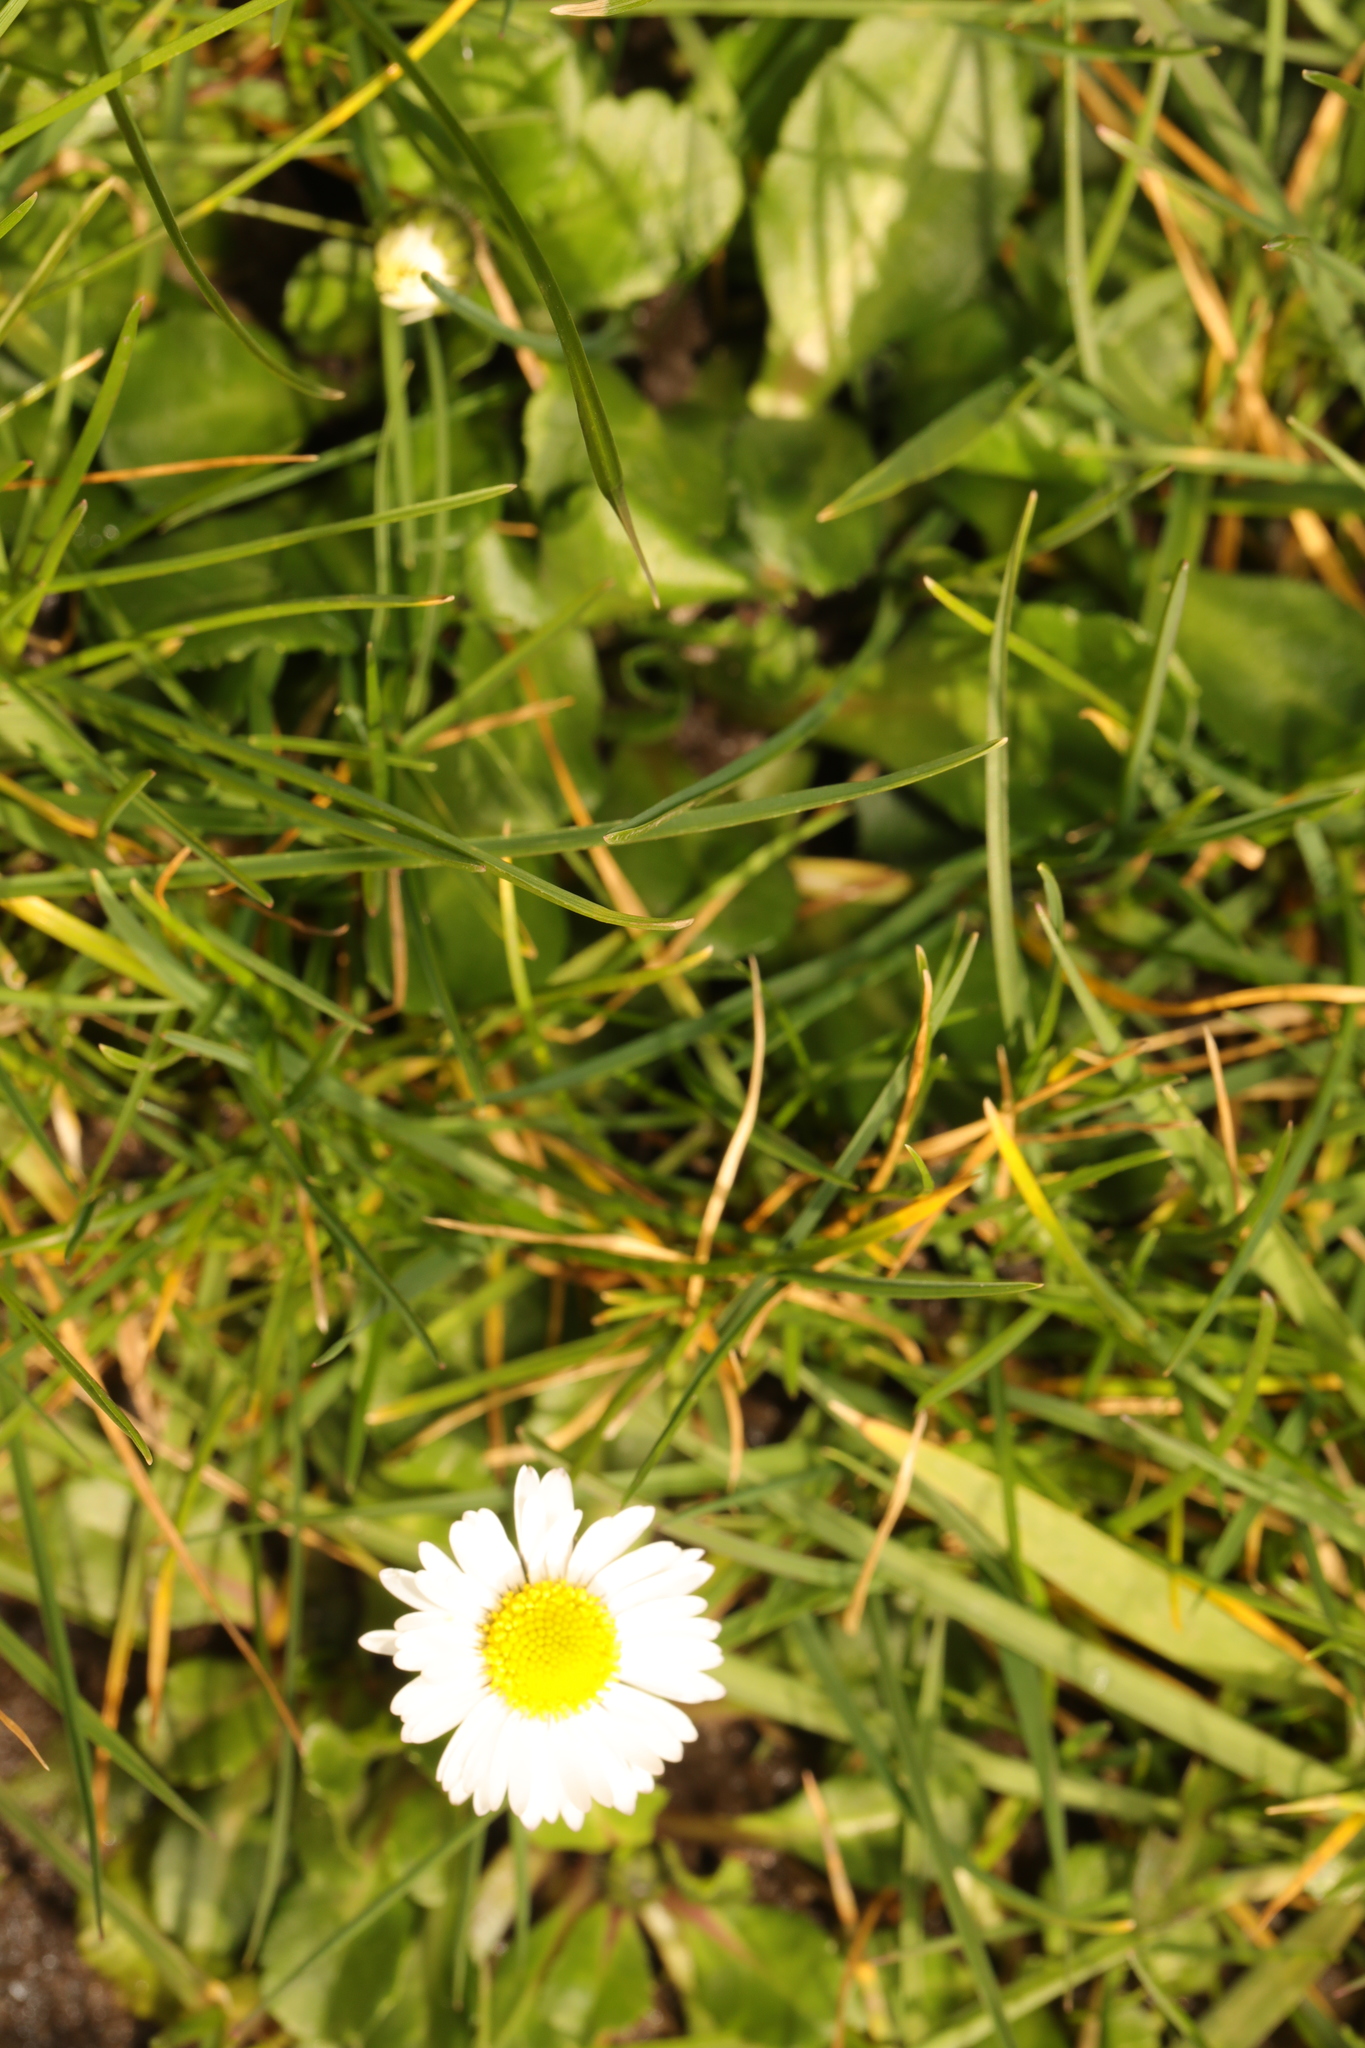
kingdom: Plantae
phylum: Tracheophyta
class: Magnoliopsida
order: Asterales
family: Asteraceae
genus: Bellis
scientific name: Bellis perennis
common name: Lawndaisy
